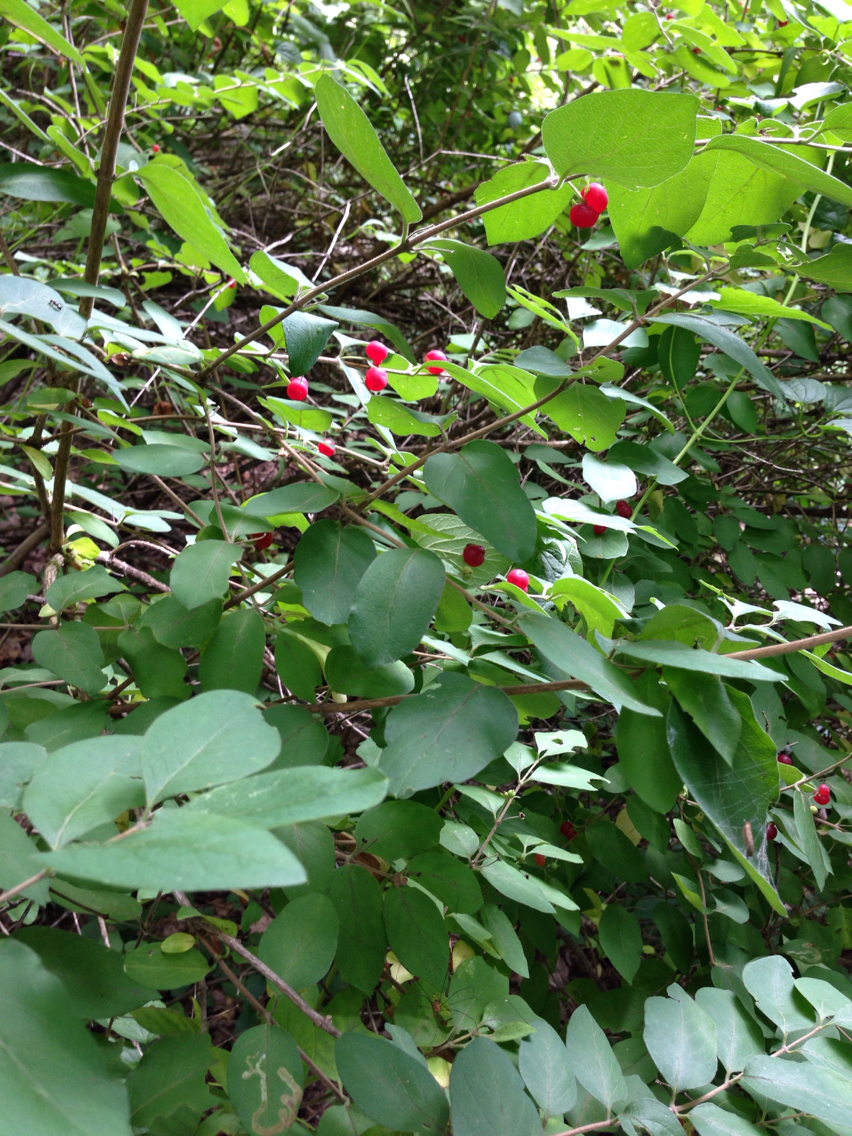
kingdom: Plantae
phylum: Tracheophyta
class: Magnoliopsida
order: Dipsacales
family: Caprifoliaceae
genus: Lonicera
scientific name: Lonicera morrowii
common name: Morrow's honeysuckle
